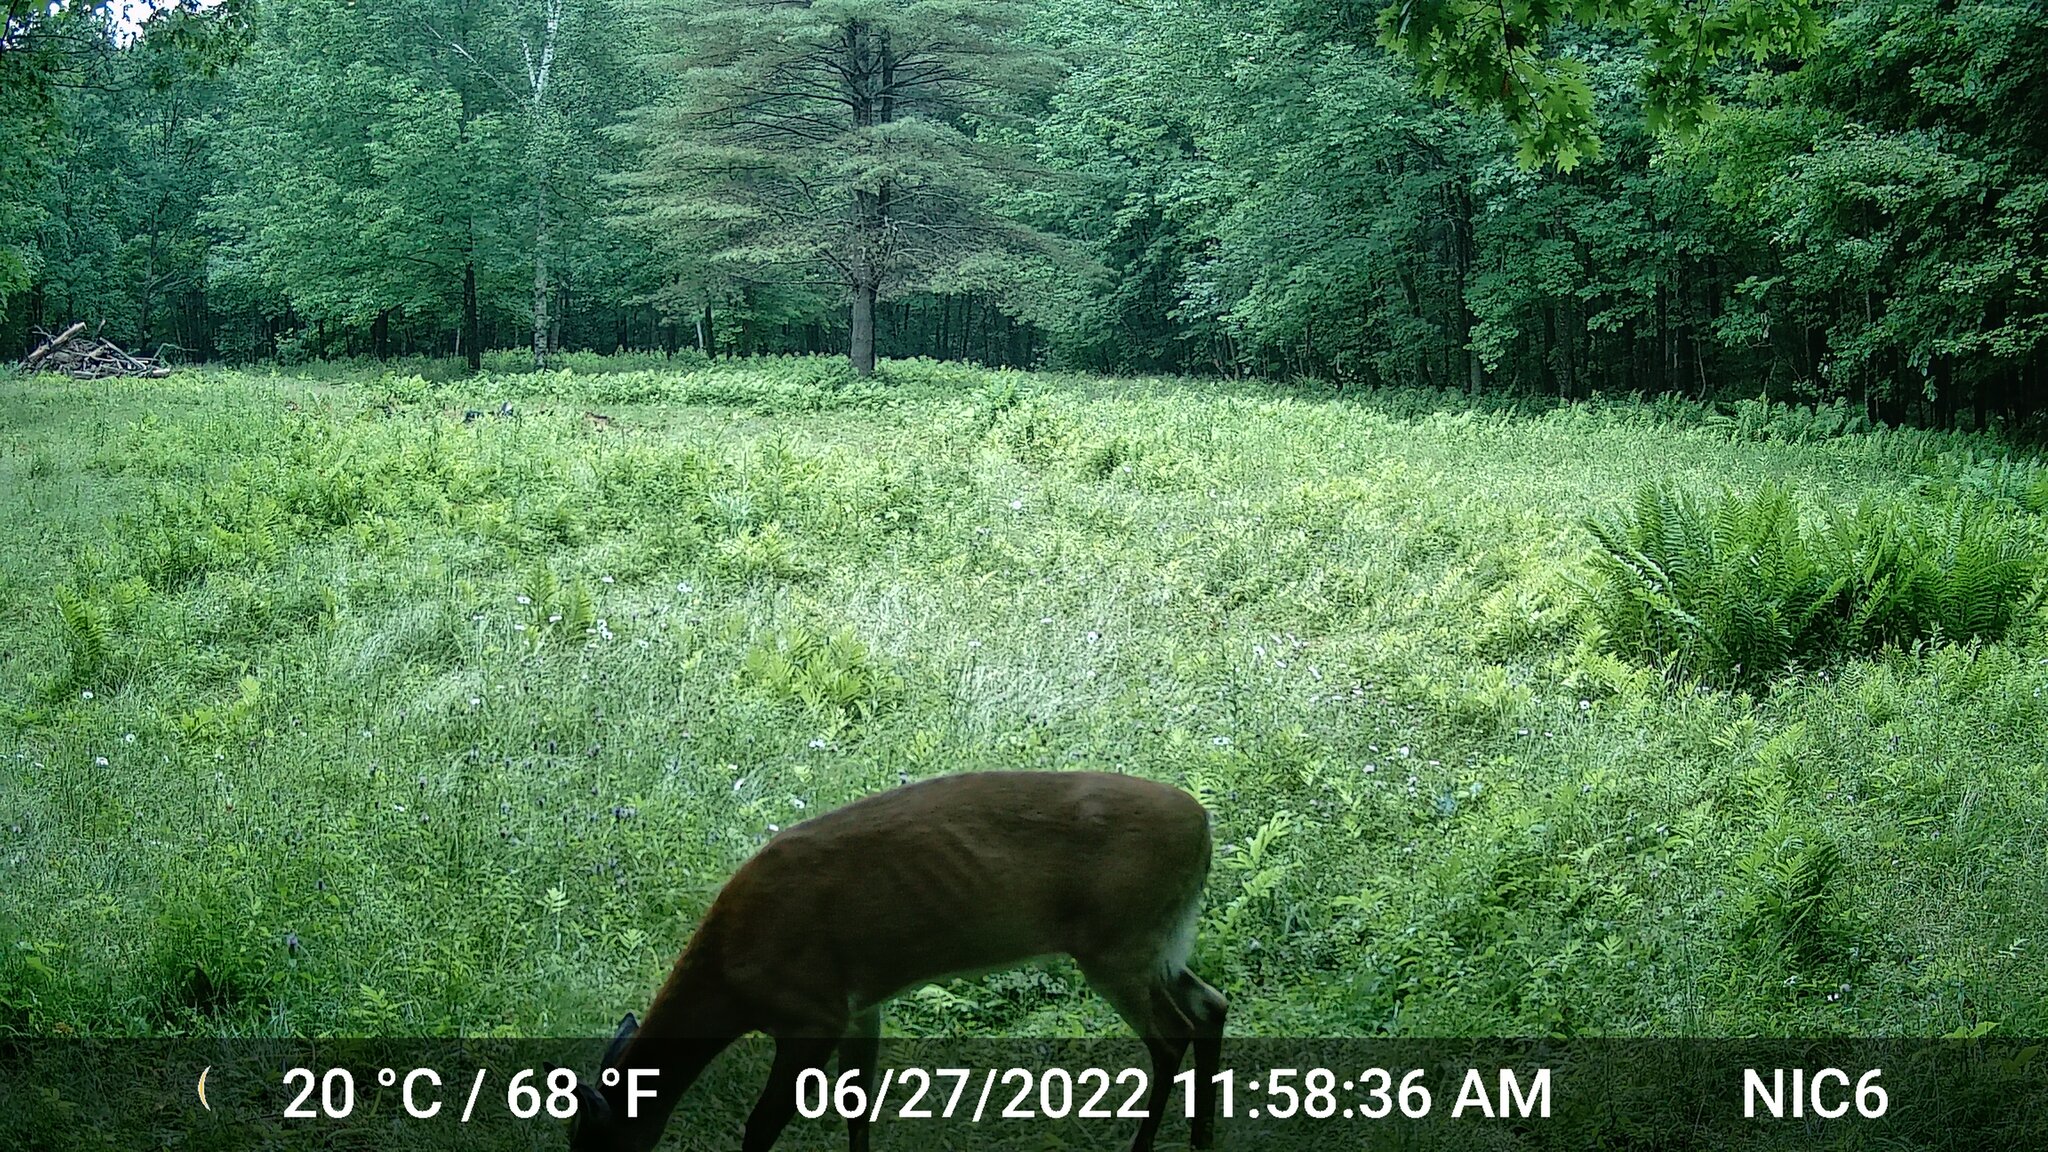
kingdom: Animalia
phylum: Chordata
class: Mammalia
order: Artiodactyla
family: Cervidae
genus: Odocoileus
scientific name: Odocoileus virginianus
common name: White-tailed deer
